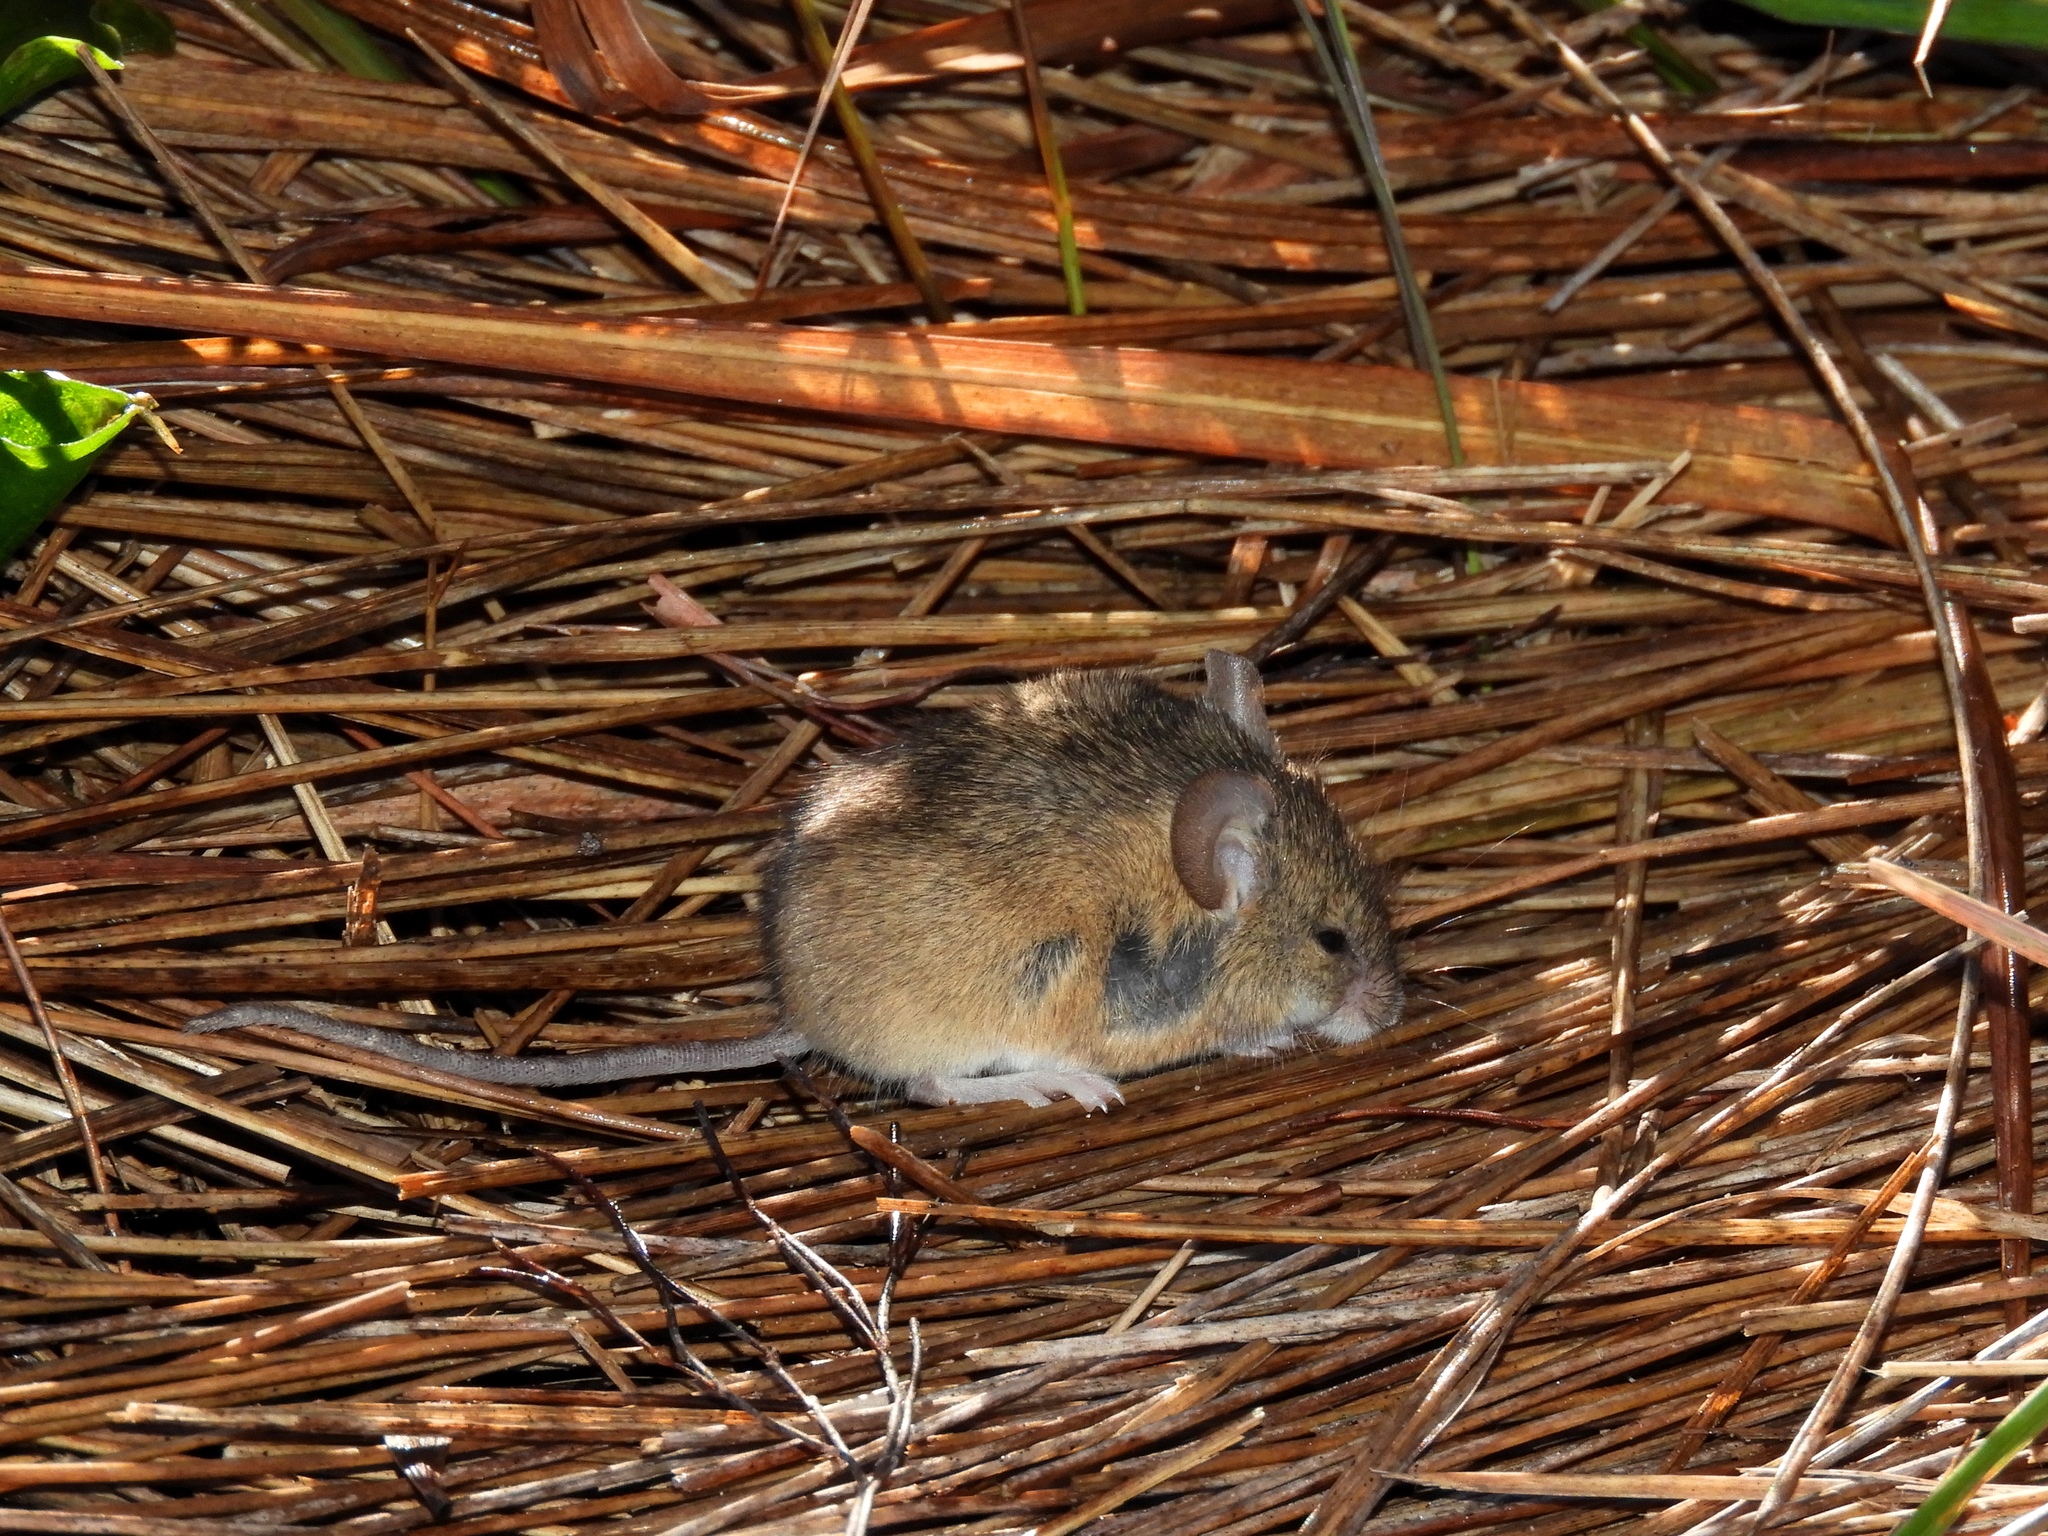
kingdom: Animalia
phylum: Chordata
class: Mammalia
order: Rodentia
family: Muridae
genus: Mus
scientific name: Mus minutoides
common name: Southern african pygmy mouse
